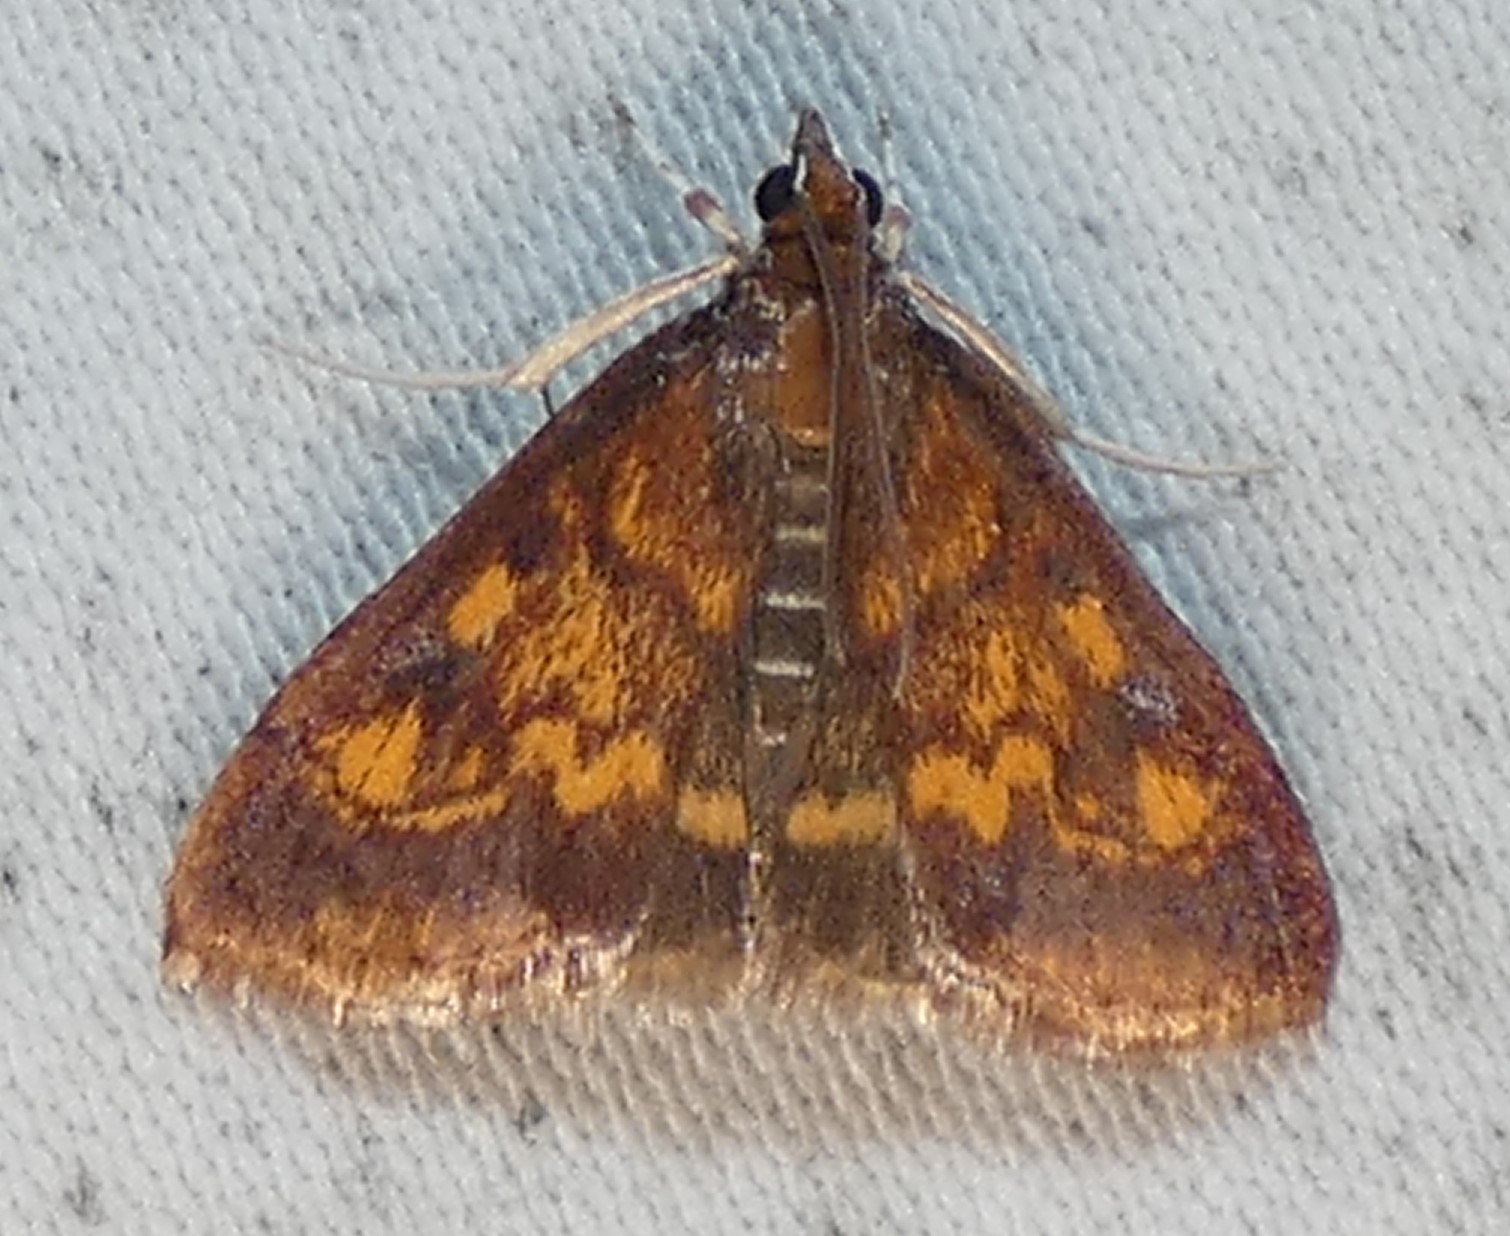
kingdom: Animalia
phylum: Arthropoda
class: Insecta
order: Lepidoptera
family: Crambidae
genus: Pyrausta
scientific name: Pyrausta acrionalis
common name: Mint-loving pyrausta moth
